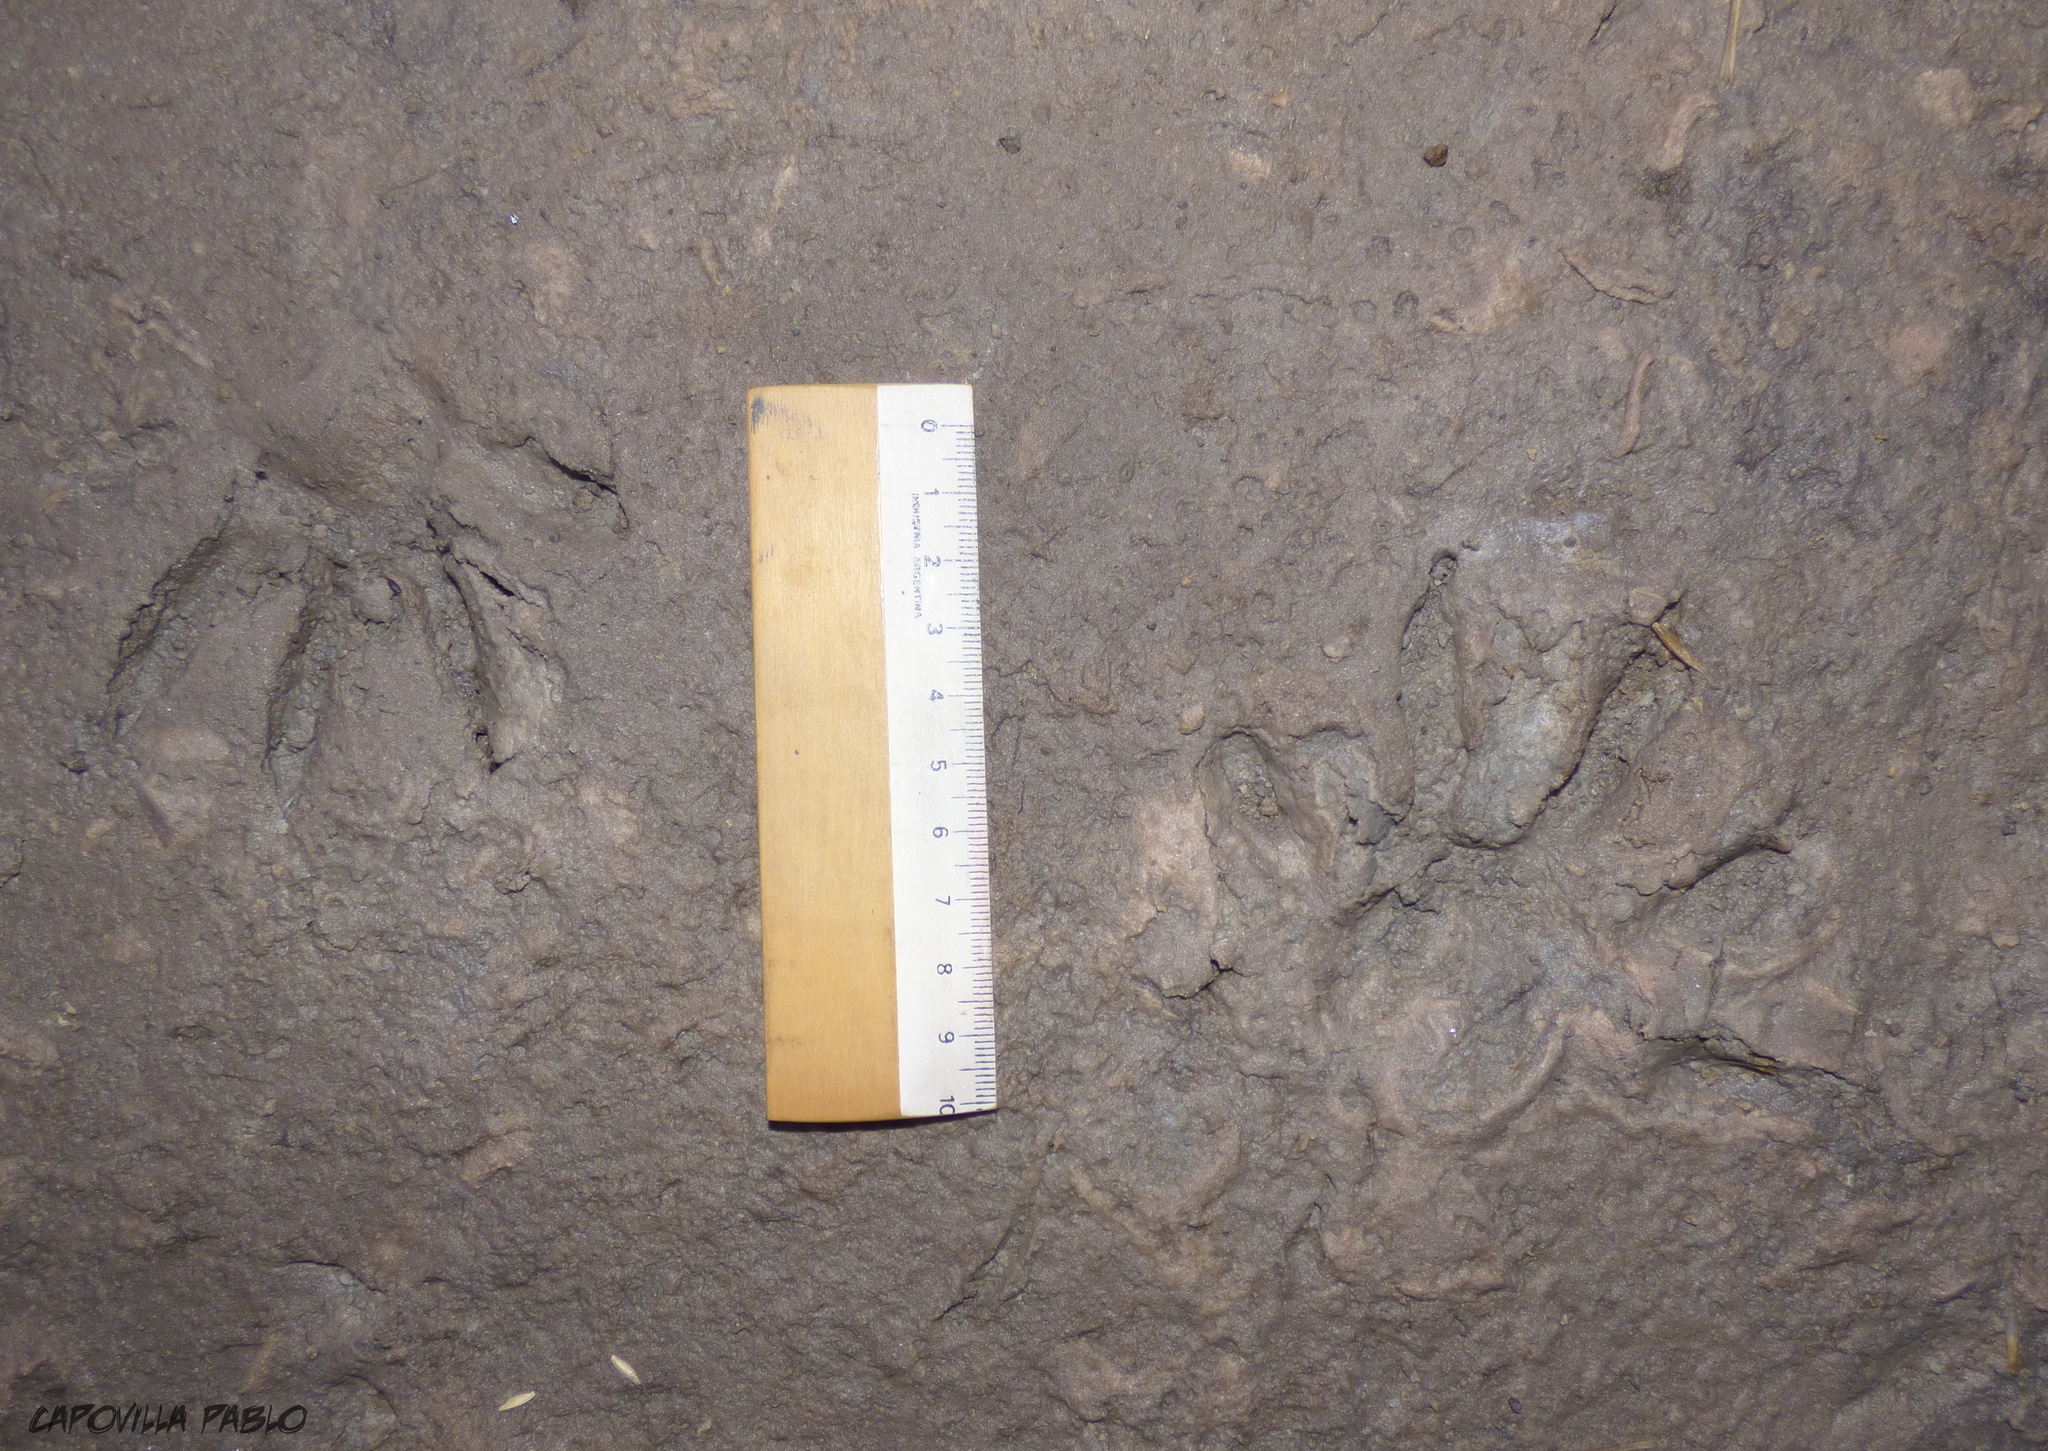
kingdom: Animalia
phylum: Chordata
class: Mammalia
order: Carnivora
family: Procyonidae
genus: Procyon
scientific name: Procyon cancrivorus
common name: Crab-eating raccoon
